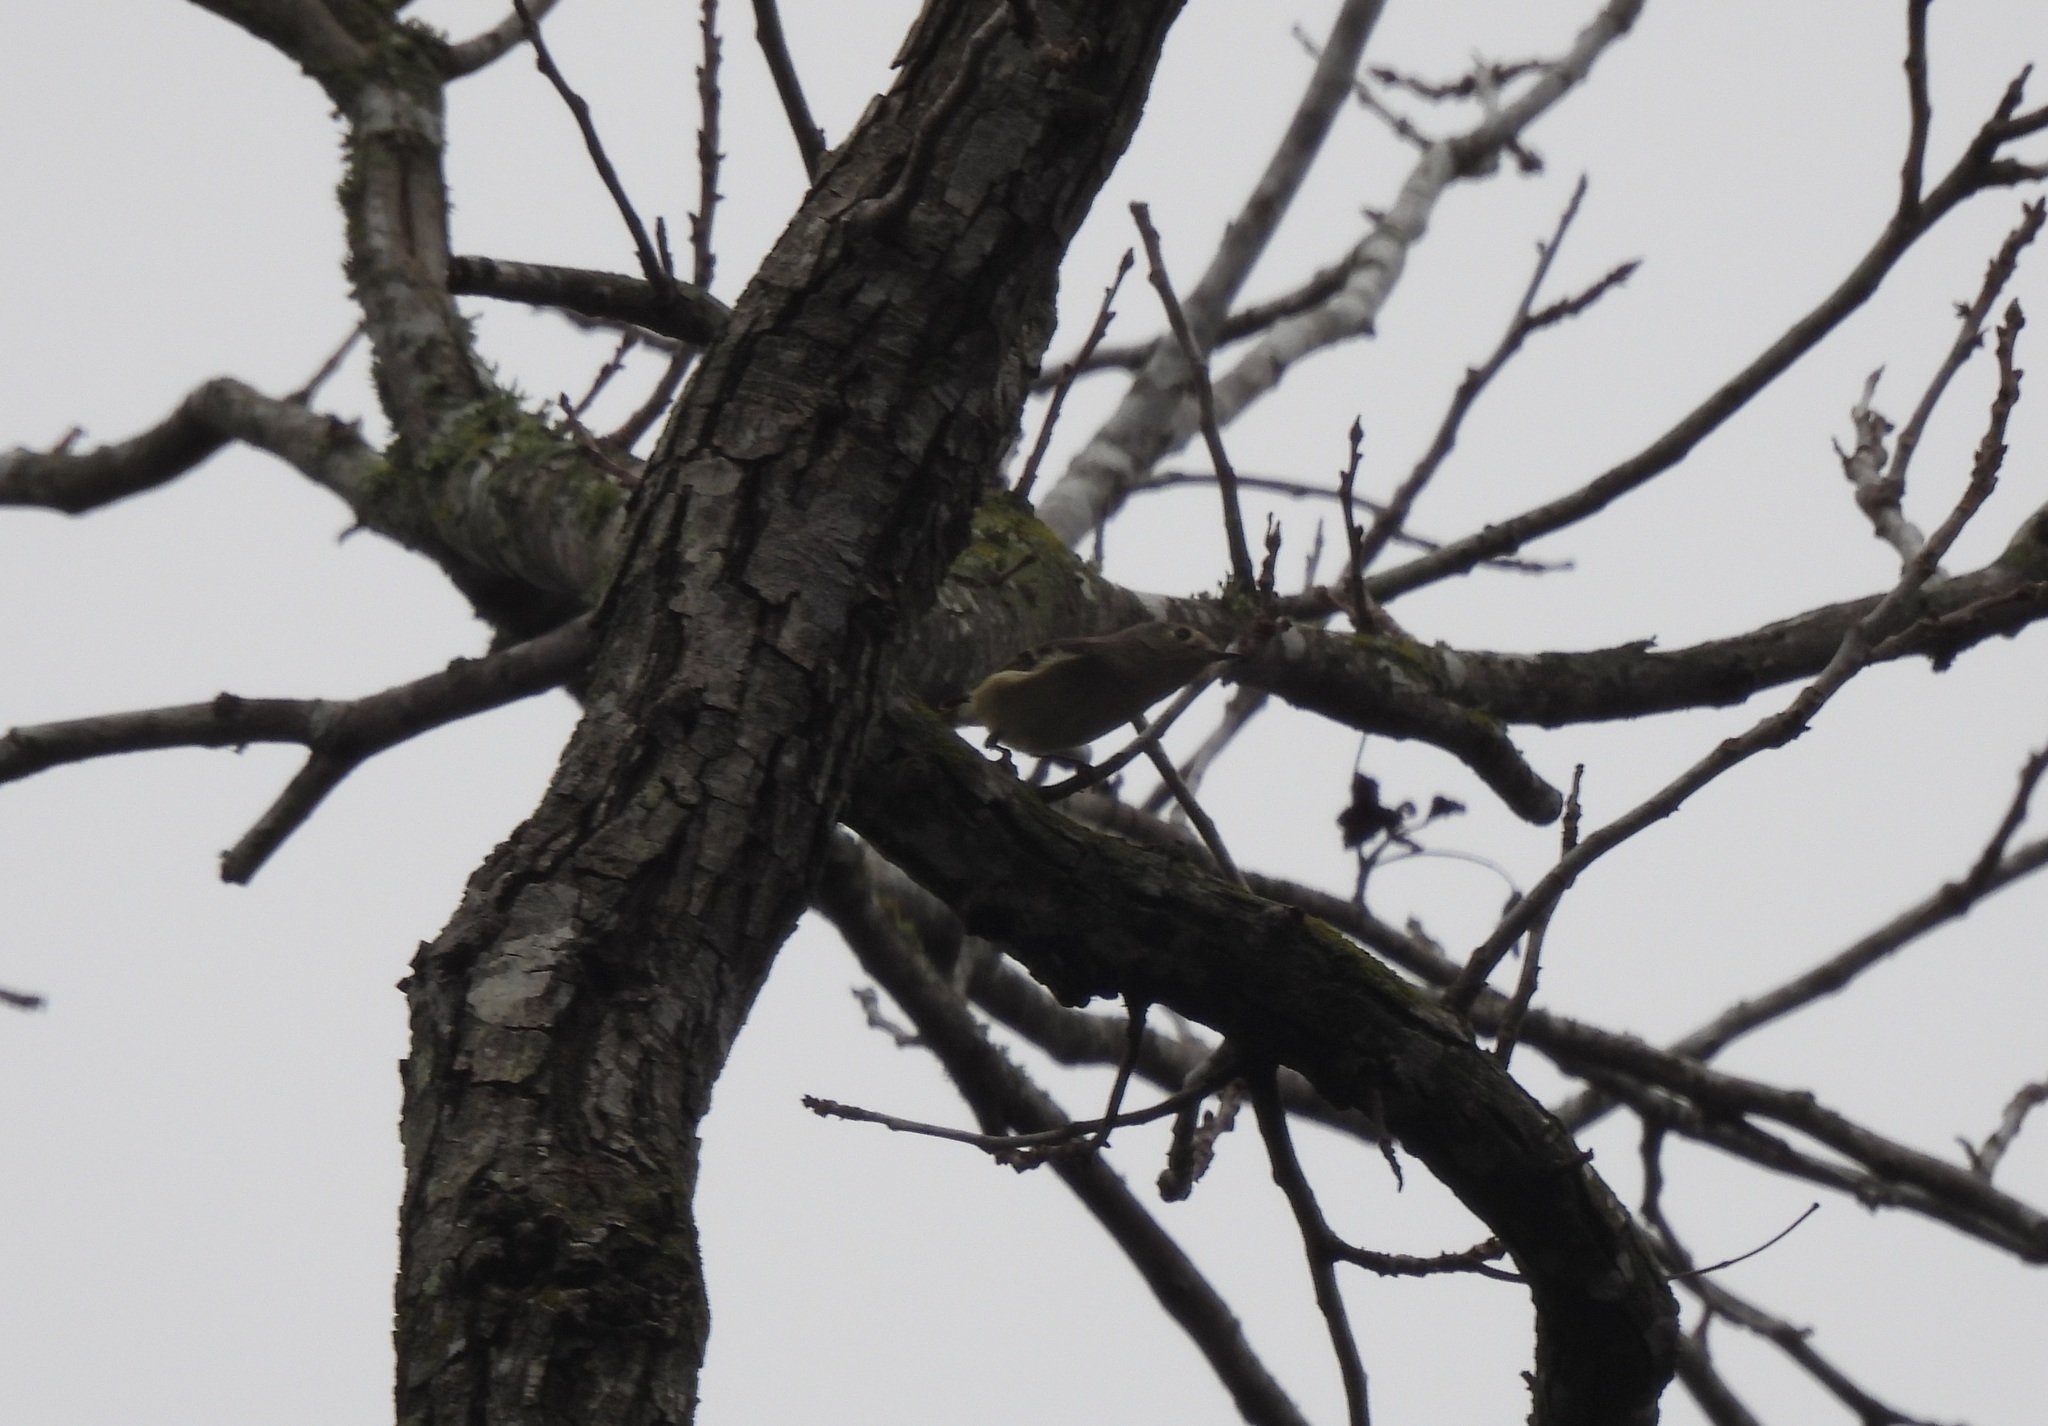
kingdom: Animalia
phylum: Chordata
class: Aves
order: Passeriformes
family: Regulidae
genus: Regulus
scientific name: Regulus calendula
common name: Ruby-crowned kinglet
